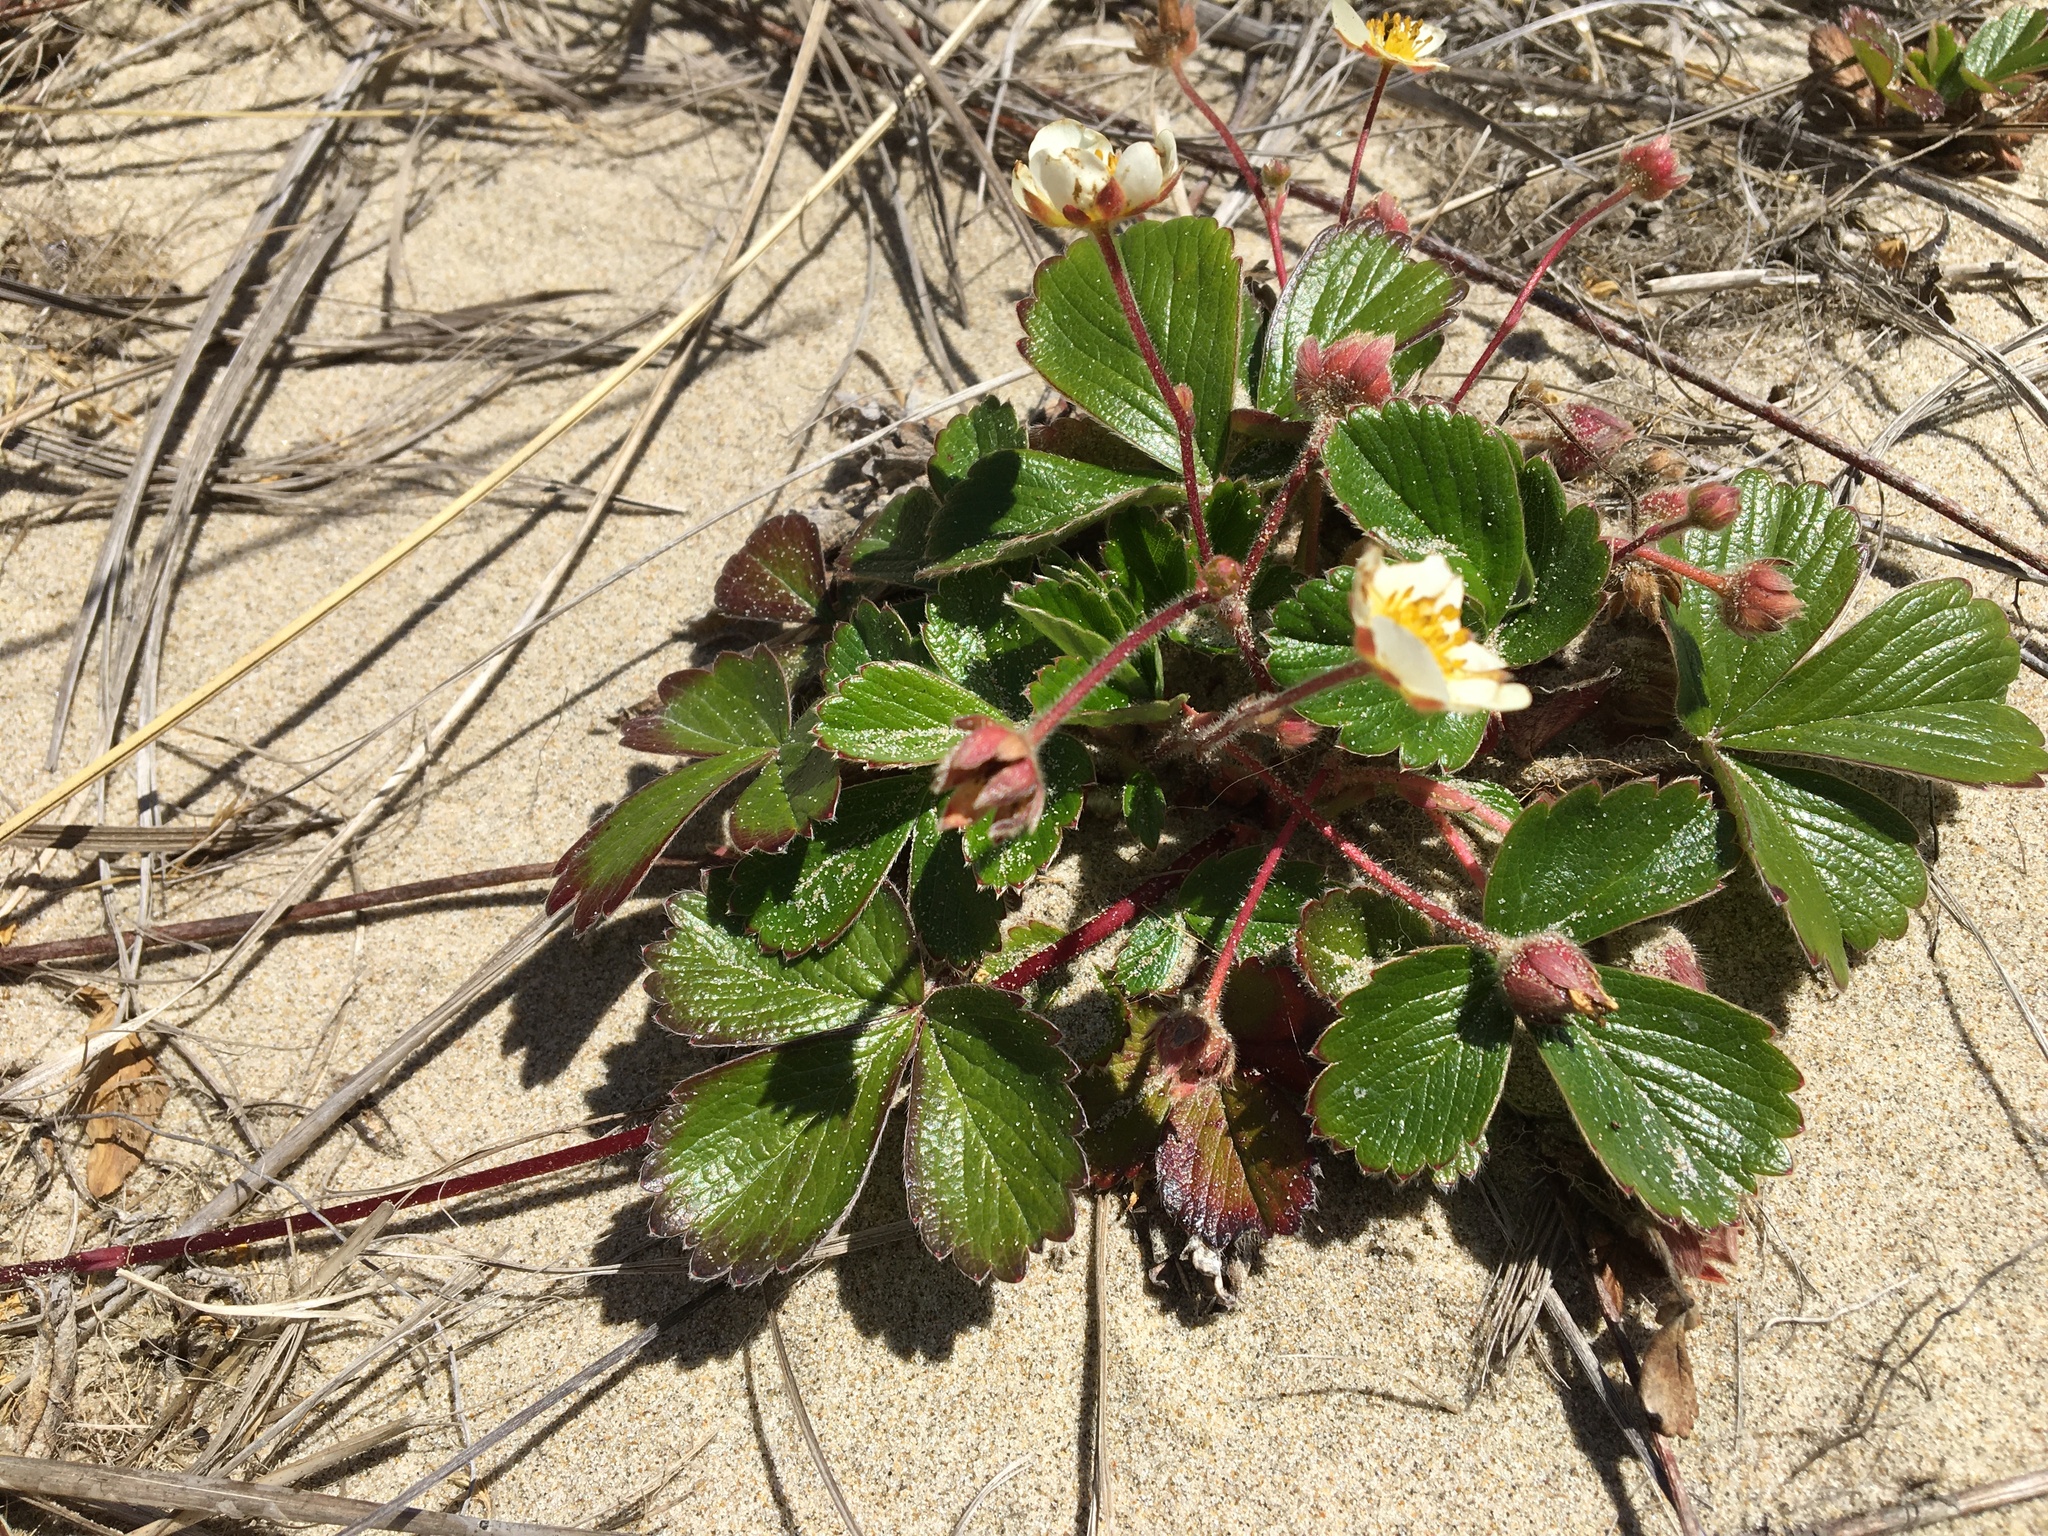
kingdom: Plantae
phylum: Tracheophyta
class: Magnoliopsida
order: Rosales
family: Rosaceae
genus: Fragaria
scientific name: Fragaria chiloensis
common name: Beach strawberry
